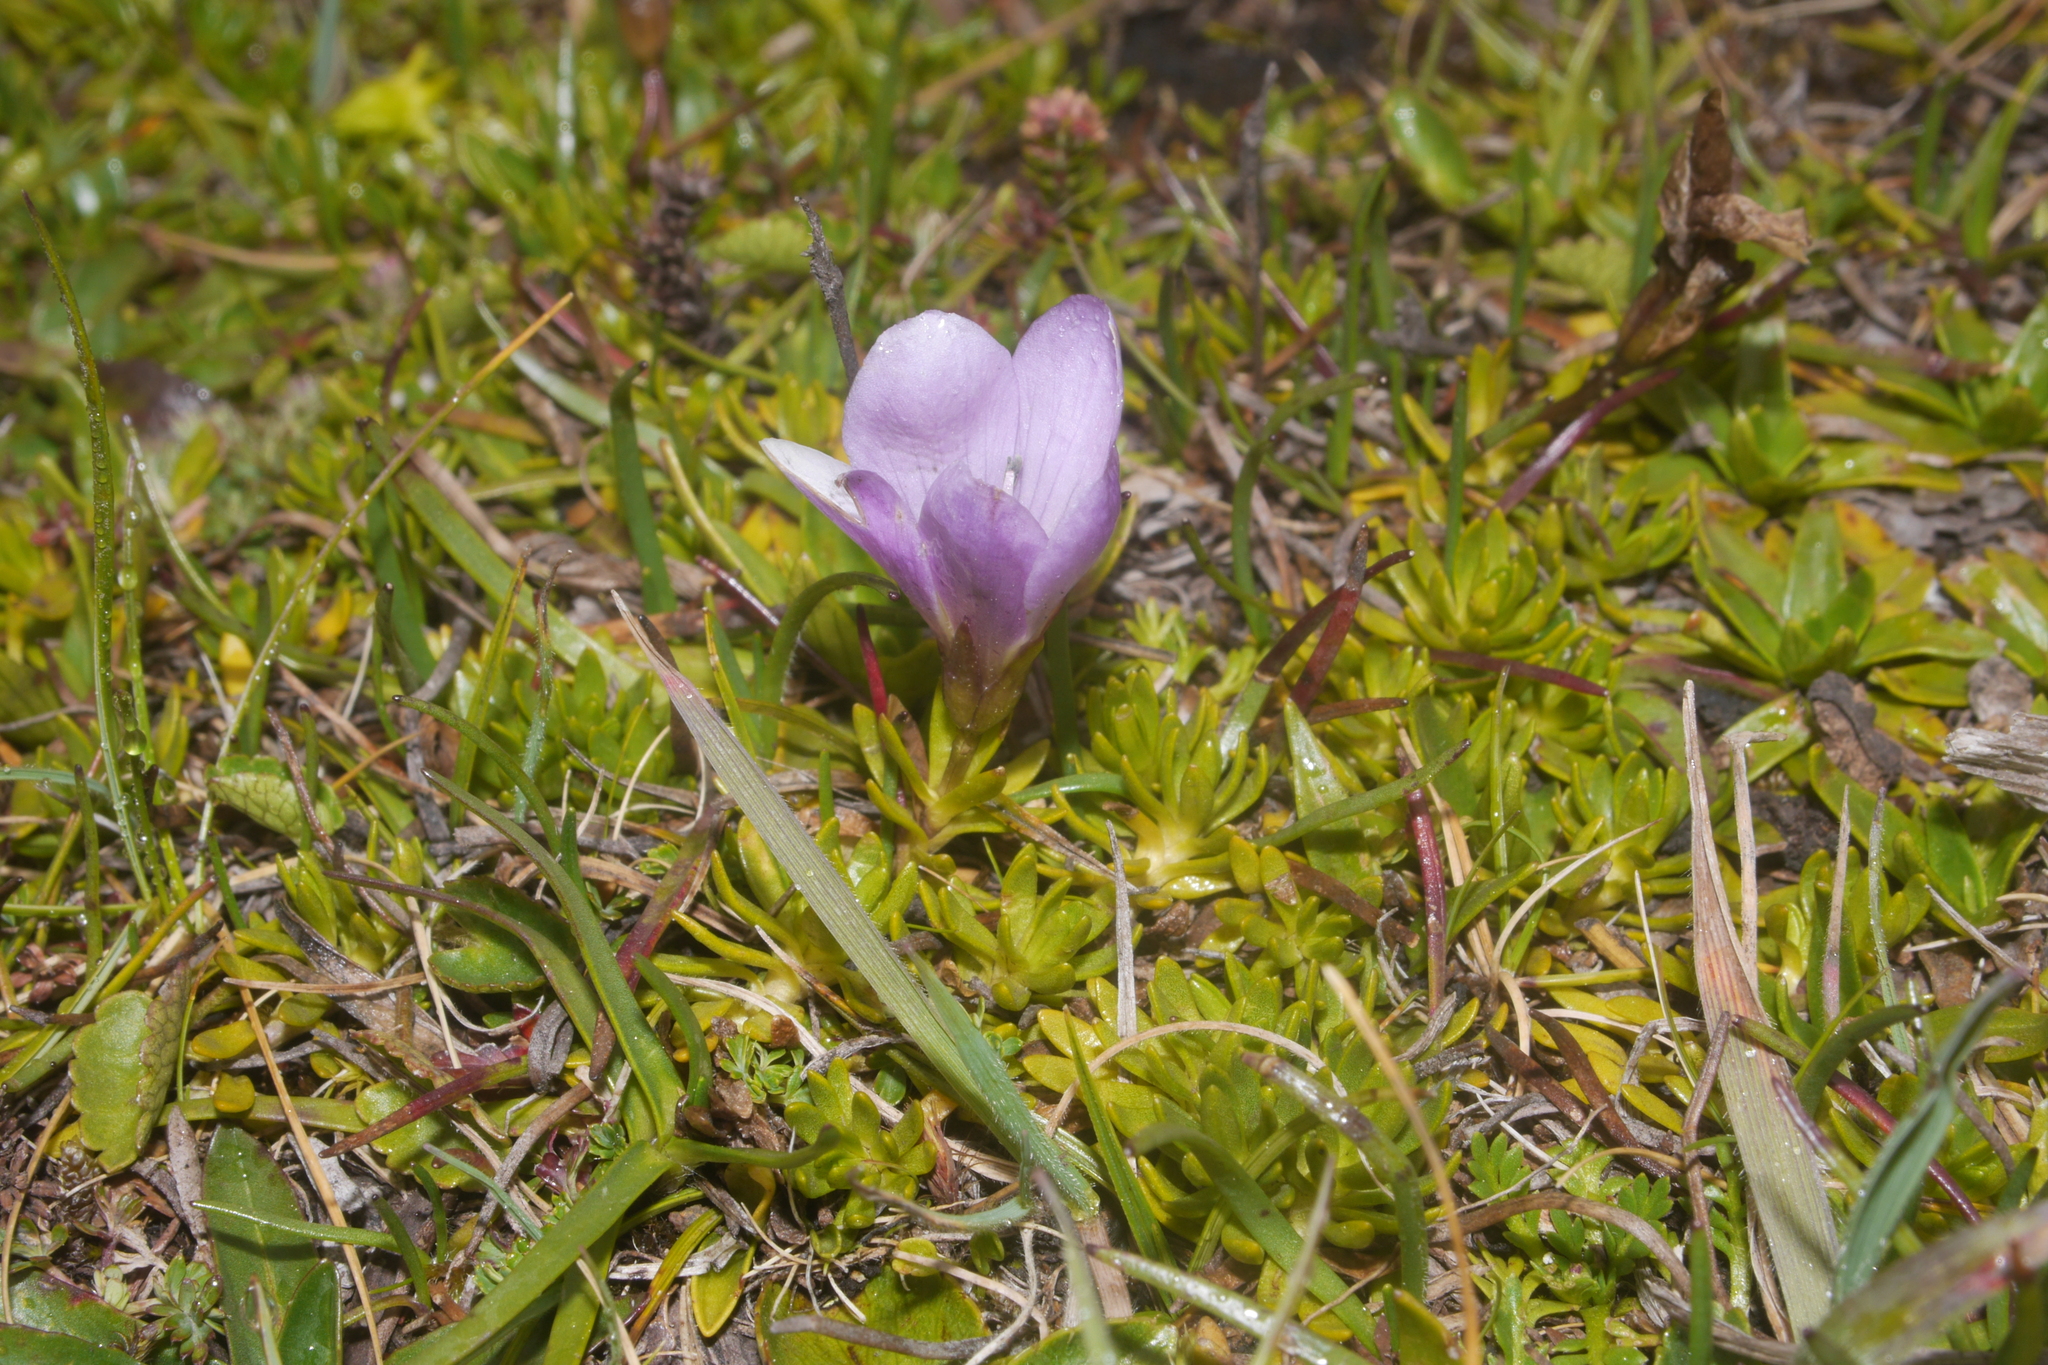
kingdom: Plantae
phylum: Tracheophyta
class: Magnoliopsida
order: Gentianales
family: Gentianaceae
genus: Gentianella
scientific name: Gentianella cerastioides
